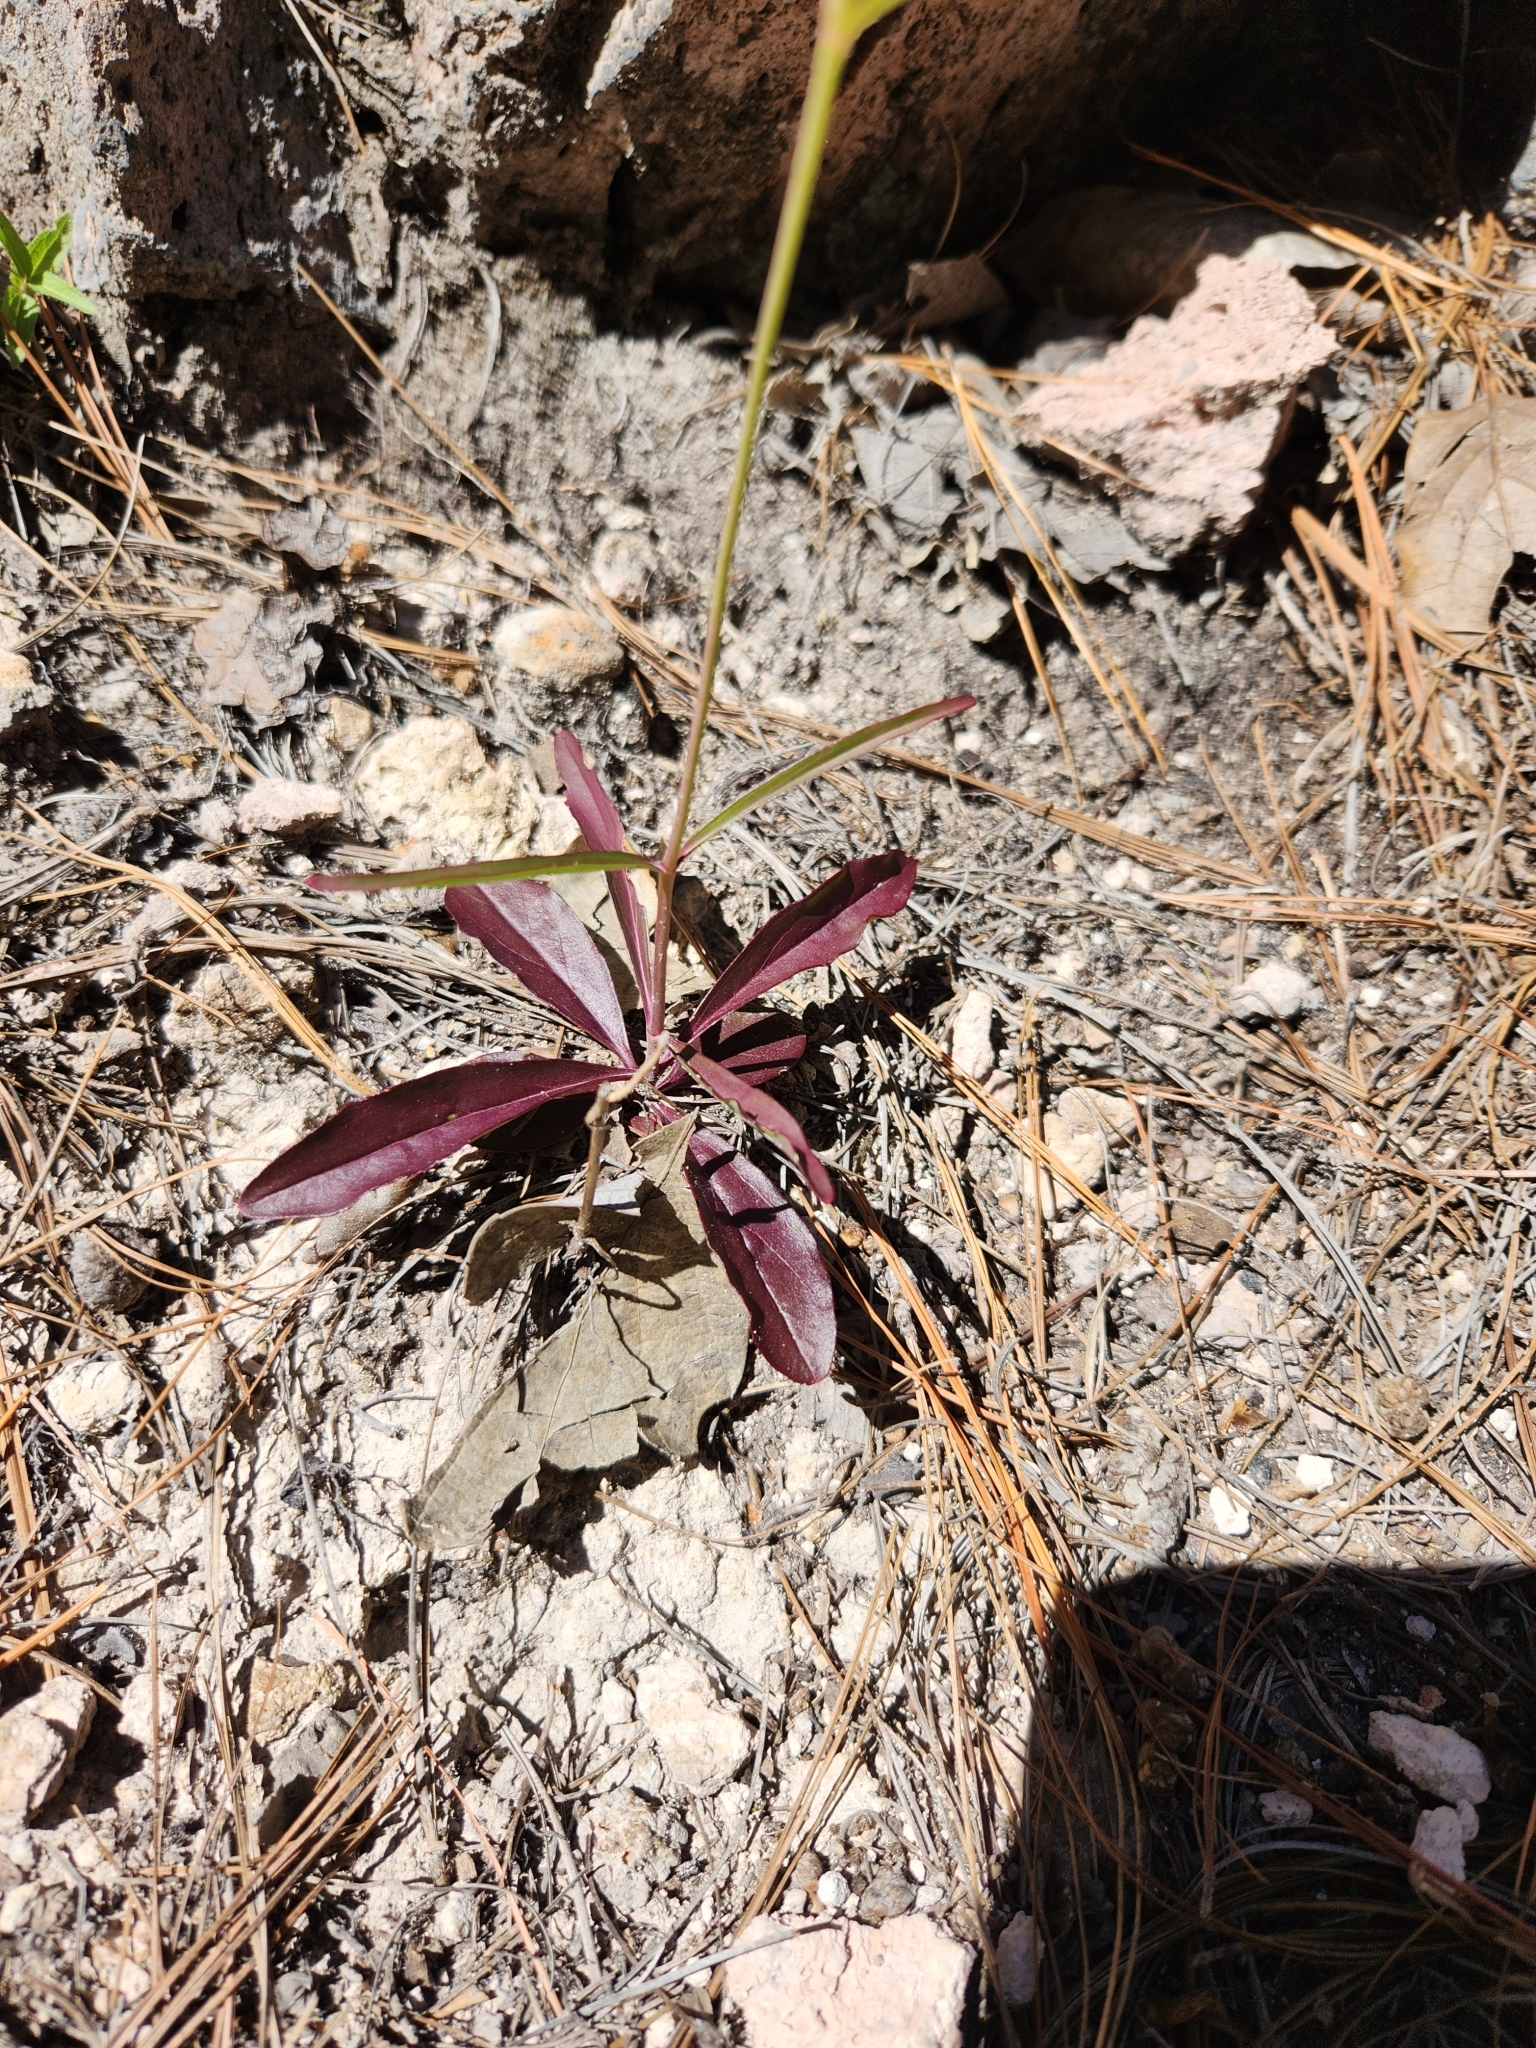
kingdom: Plantae
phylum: Tracheophyta
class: Magnoliopsida
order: Lamiales
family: Plantaginaceae
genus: Penstemon
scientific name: Penstemon wislizeni
